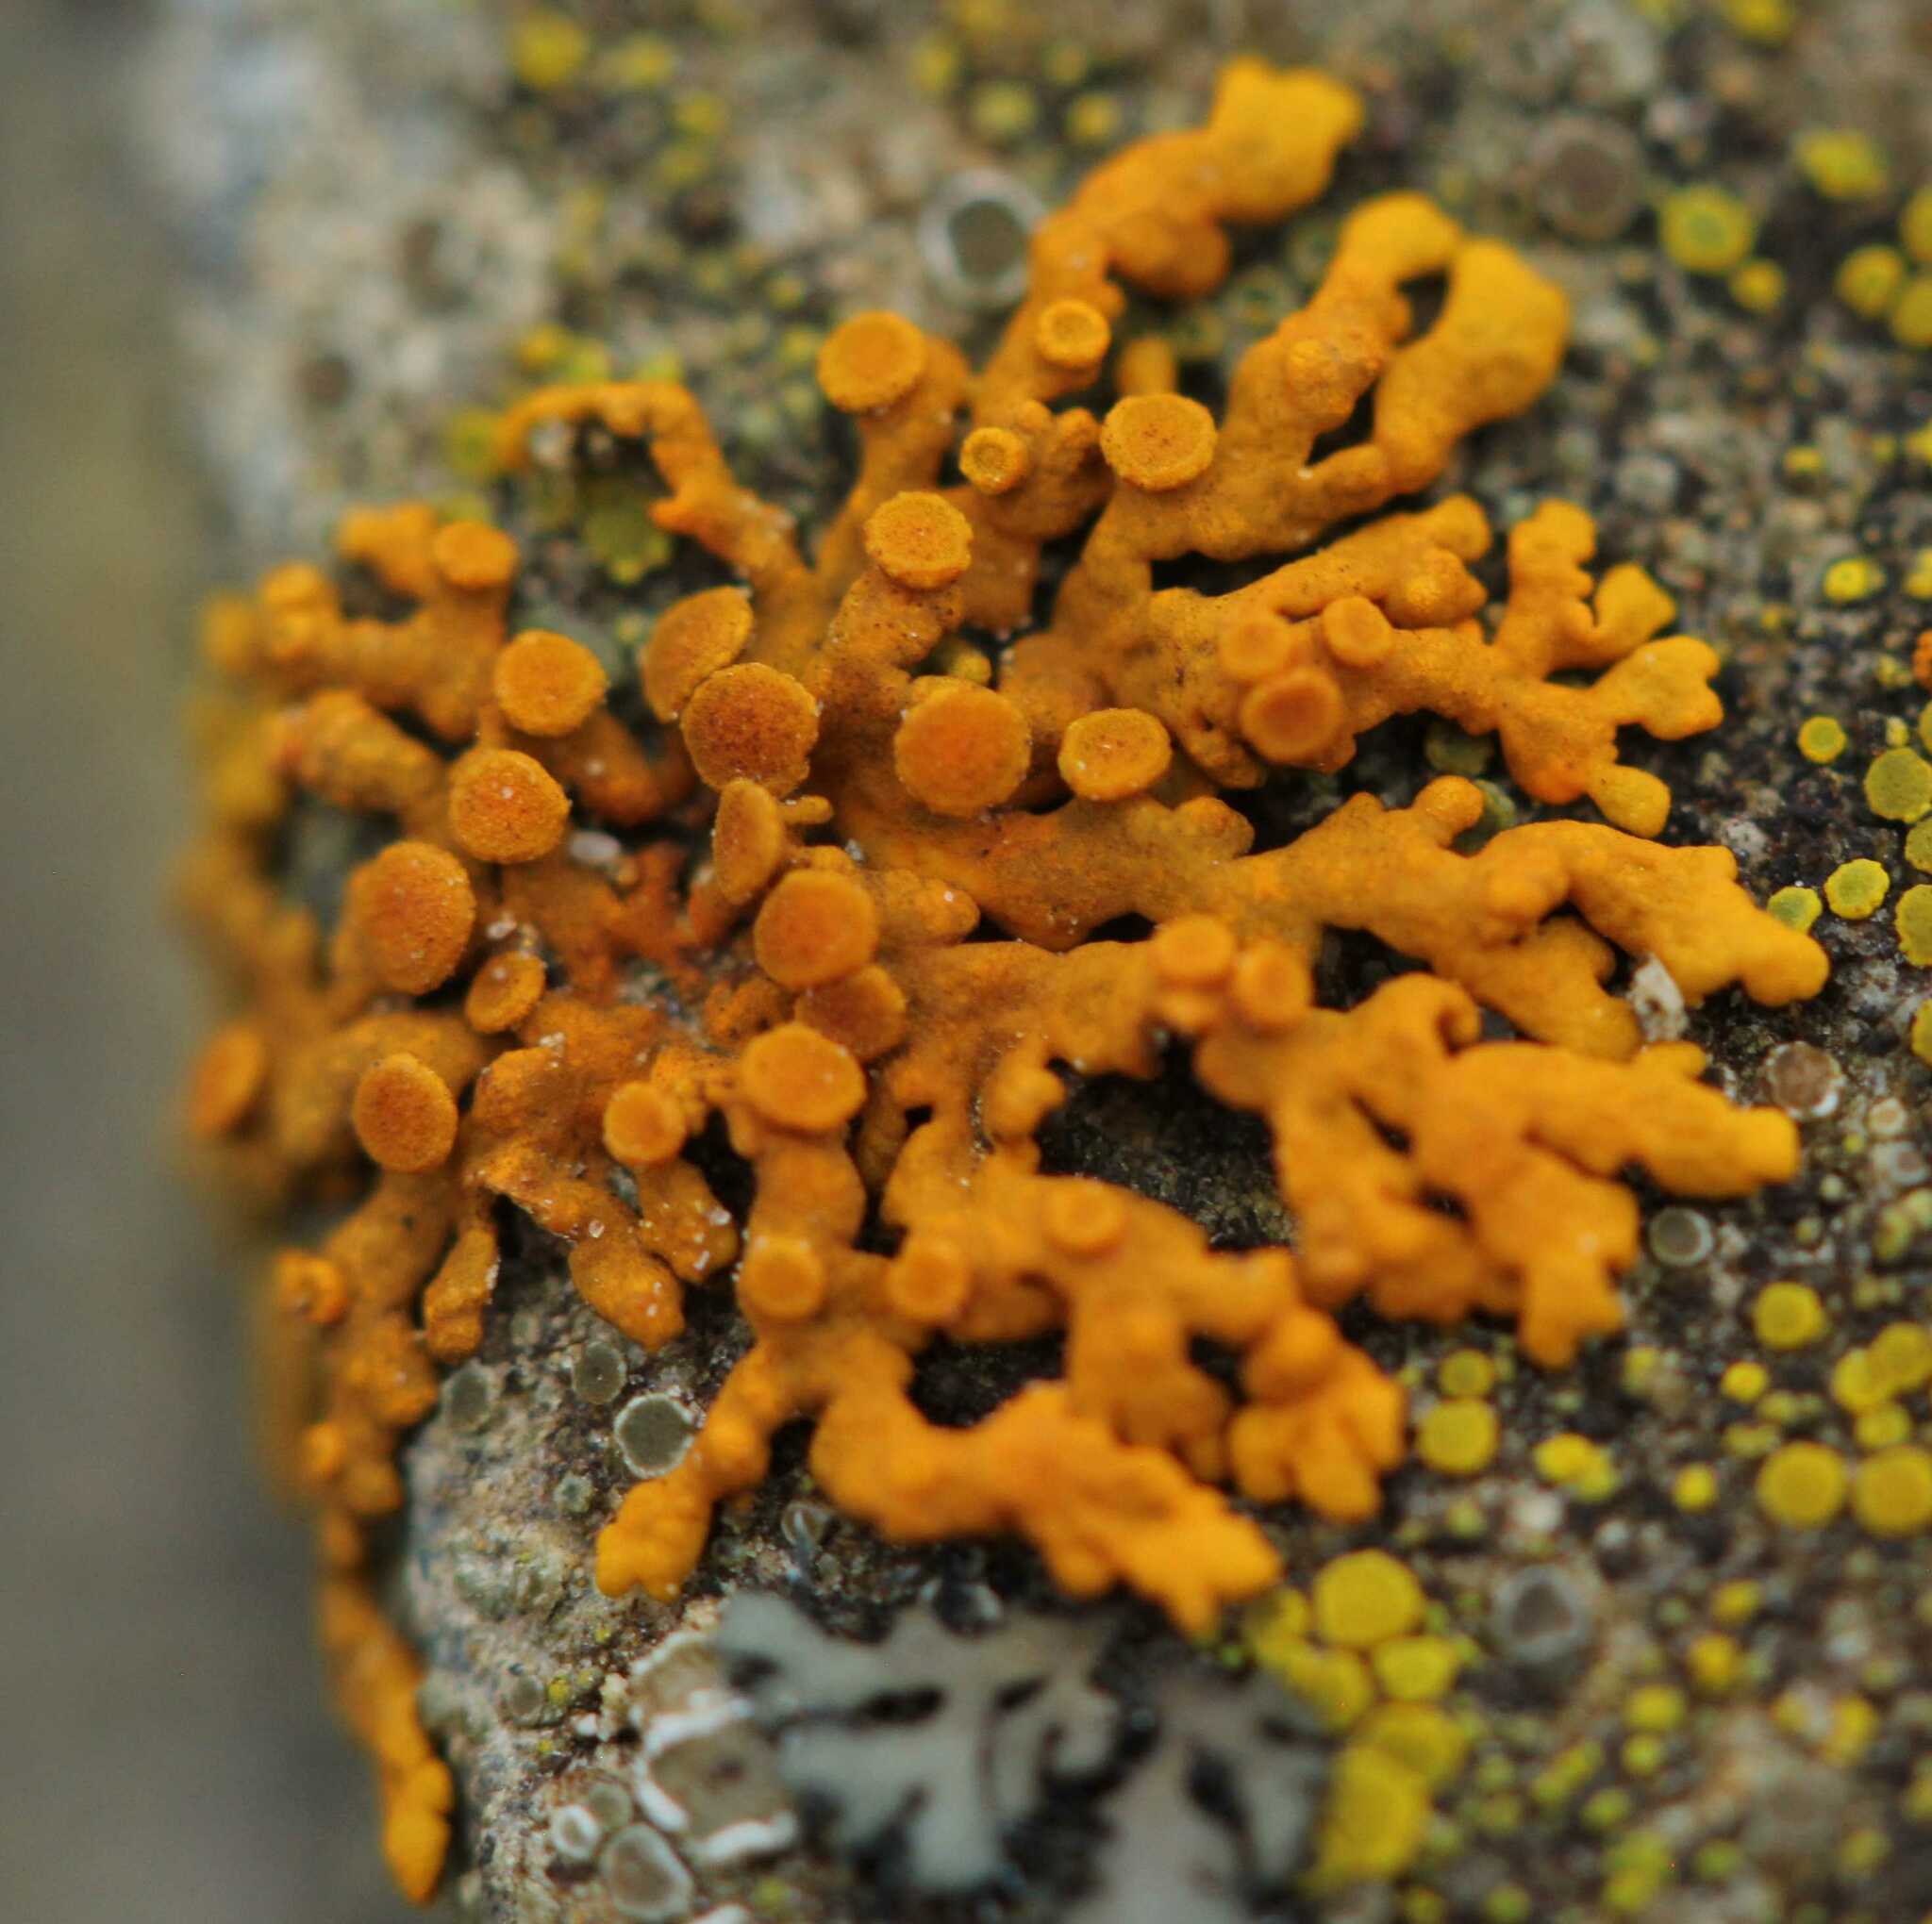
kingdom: Fungi
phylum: Ascomycota
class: Lecanoromycetes
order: Teloschistales
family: Teloschistaceae
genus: Xanthoria
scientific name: Xanthoria elegans
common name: Elegant sunburst lichen
